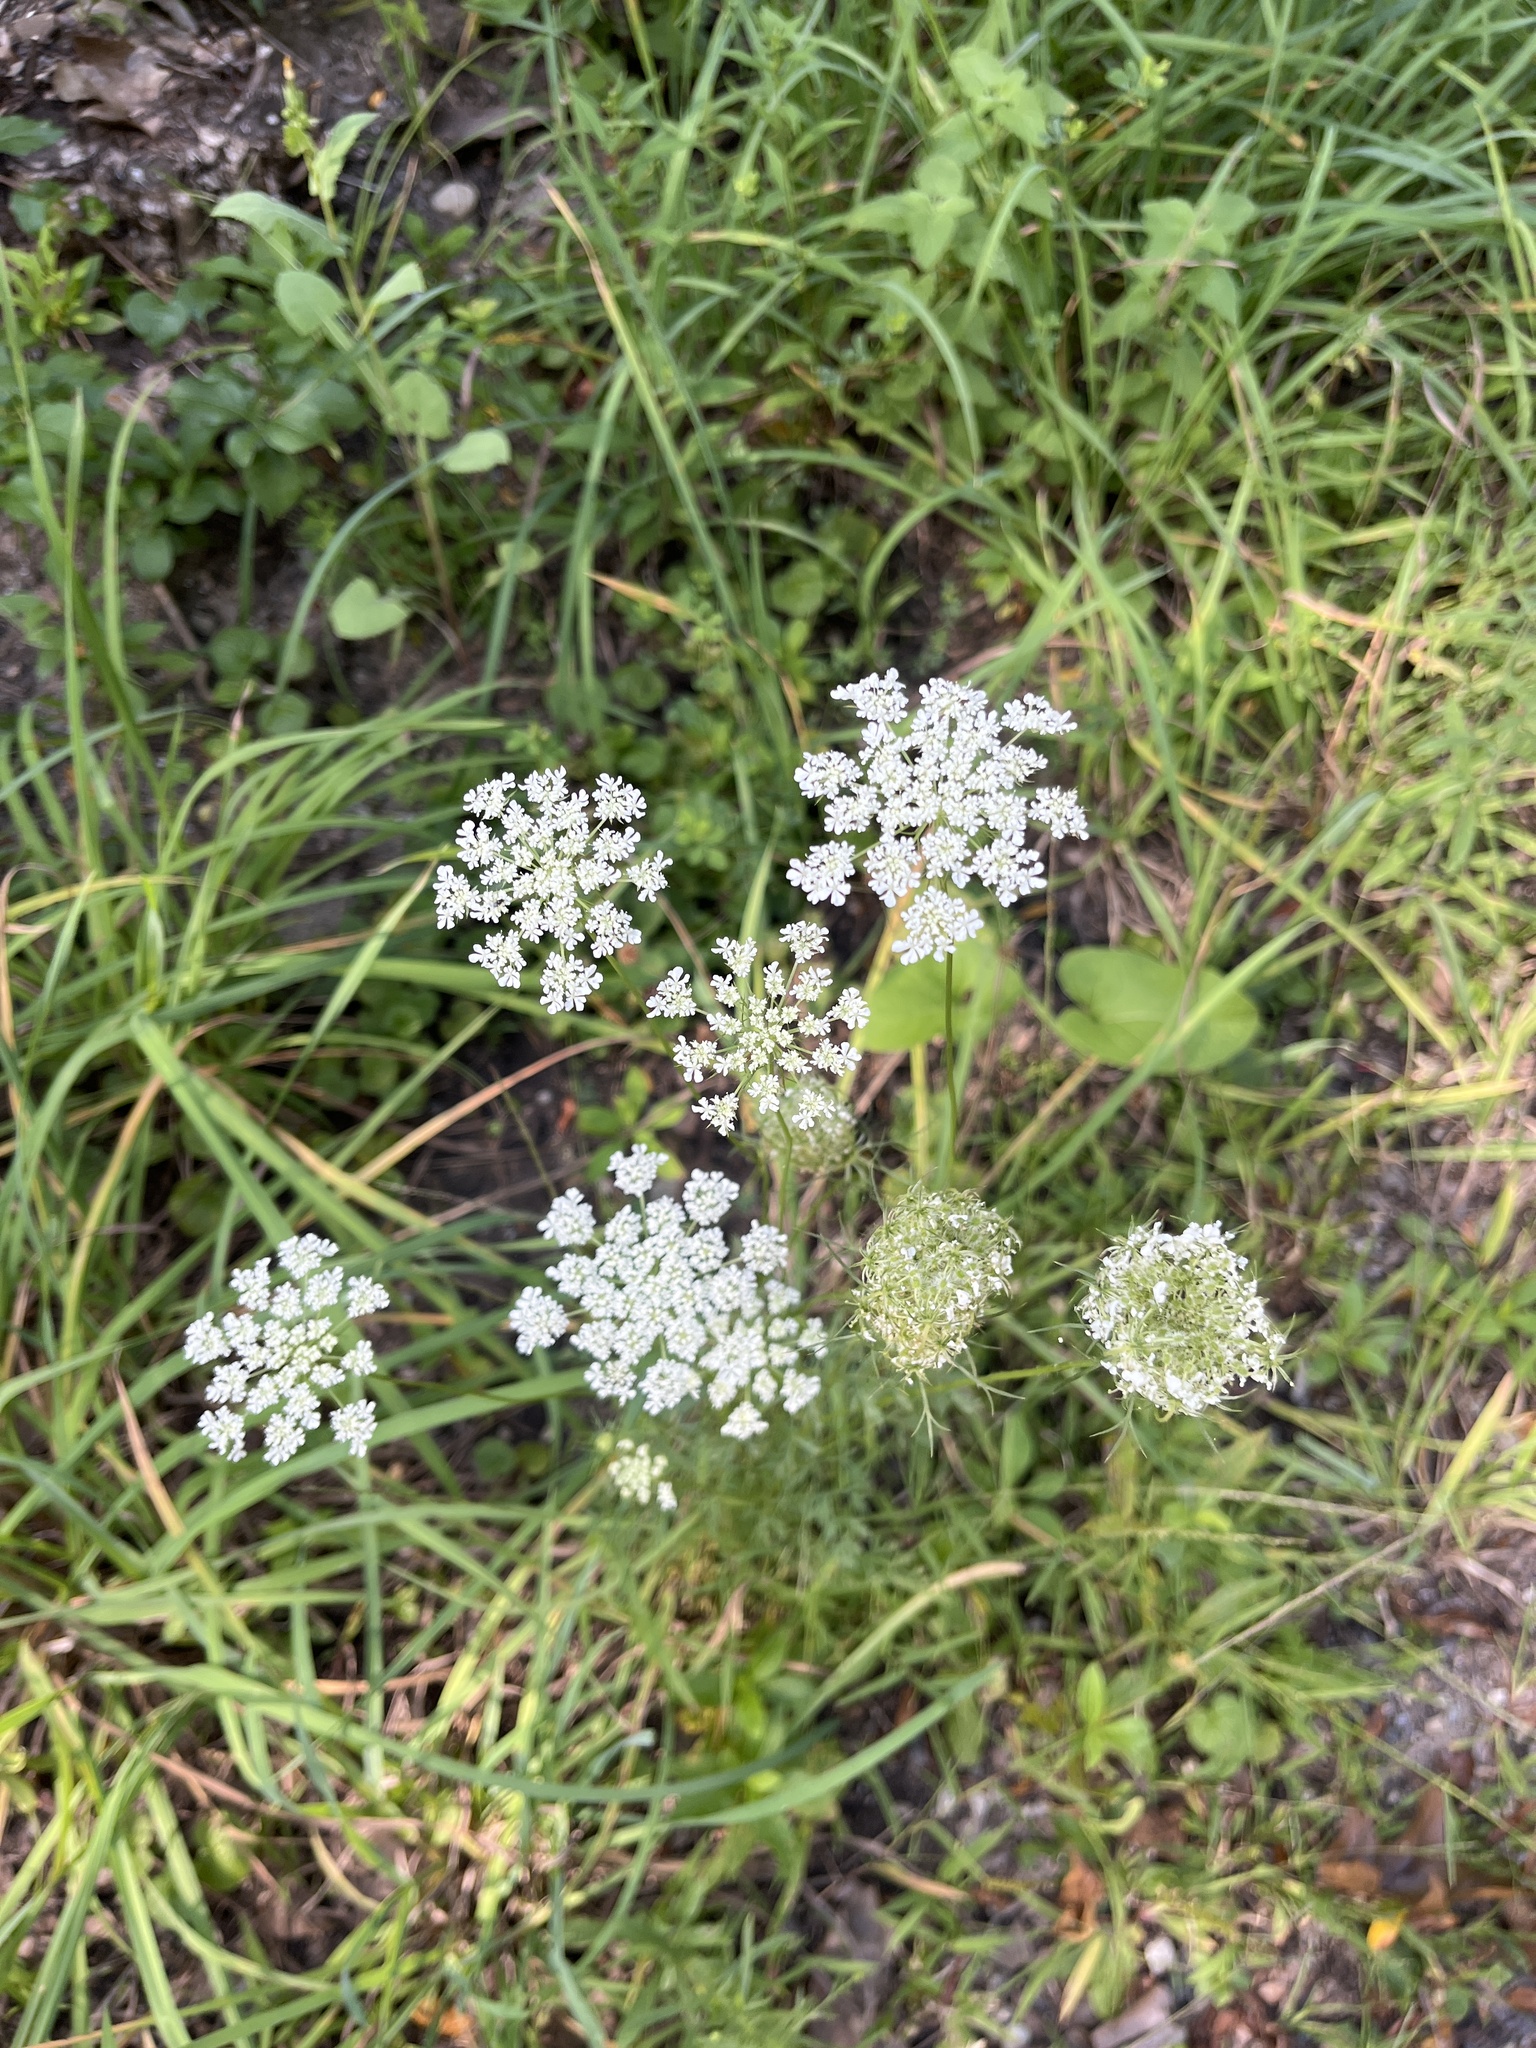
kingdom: Plantae
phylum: Tracheophyta
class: Magnoliopsida
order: Apiales
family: Apiaceae
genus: Daucus
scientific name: Daucus carota
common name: Wild carrot
